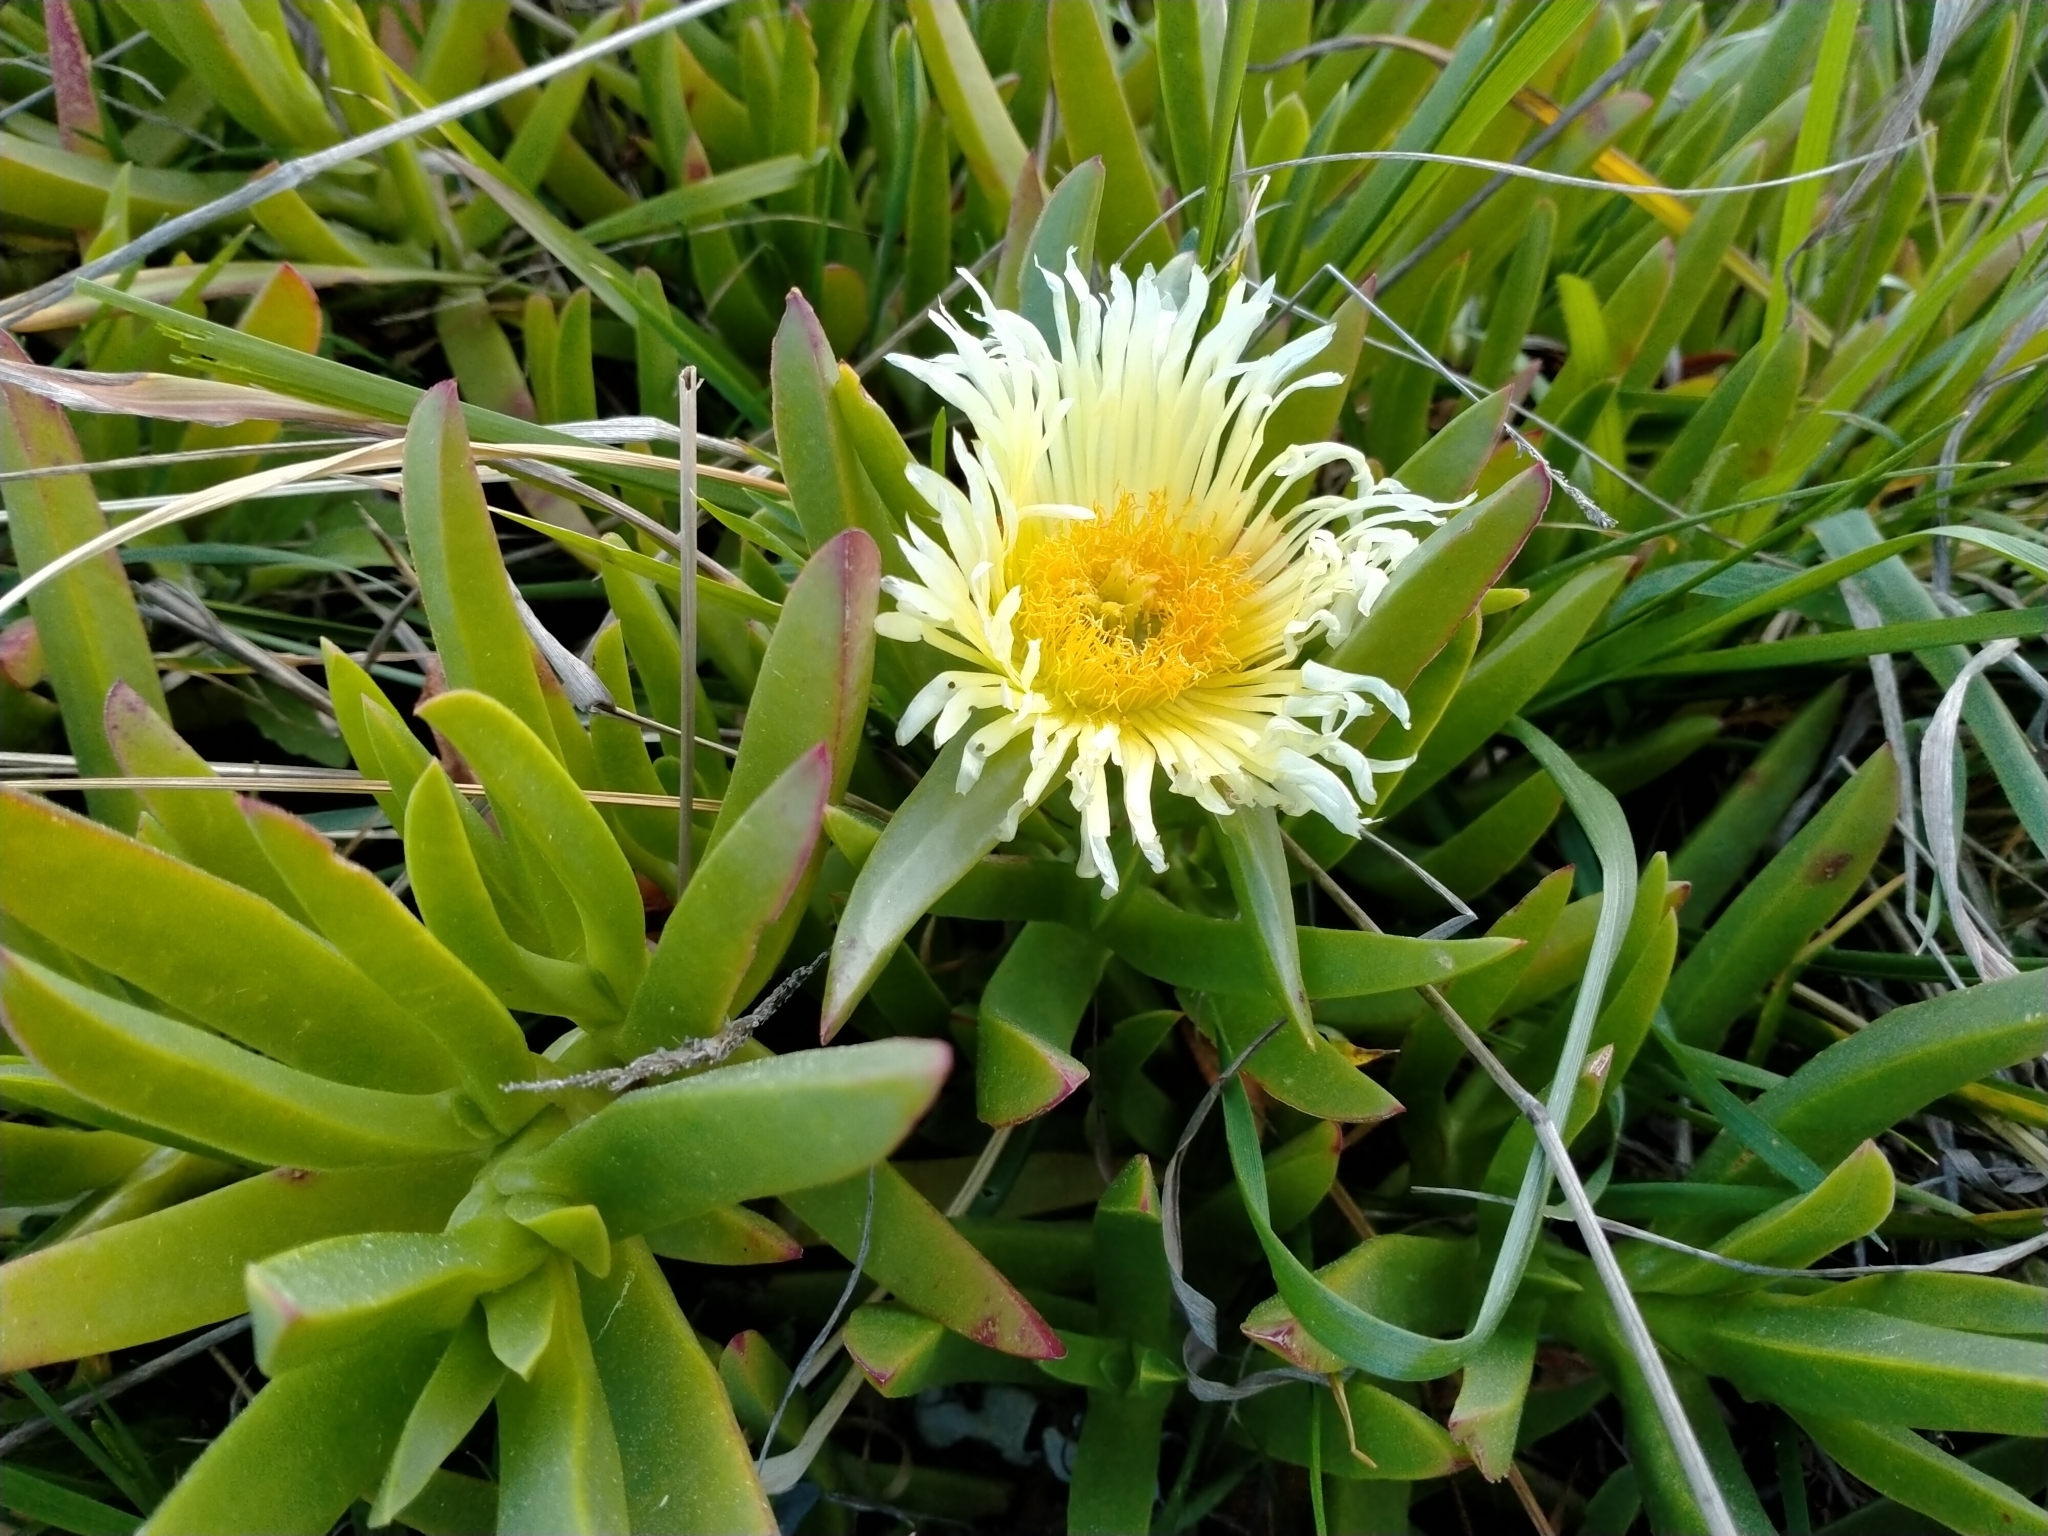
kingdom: Plantae
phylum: Tracheophyta
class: Magnoliopsida
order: Caryophyllales
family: Aizoaceae
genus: Carpobrotus
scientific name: Carpobrotus edulis
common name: Hottentot-fig
